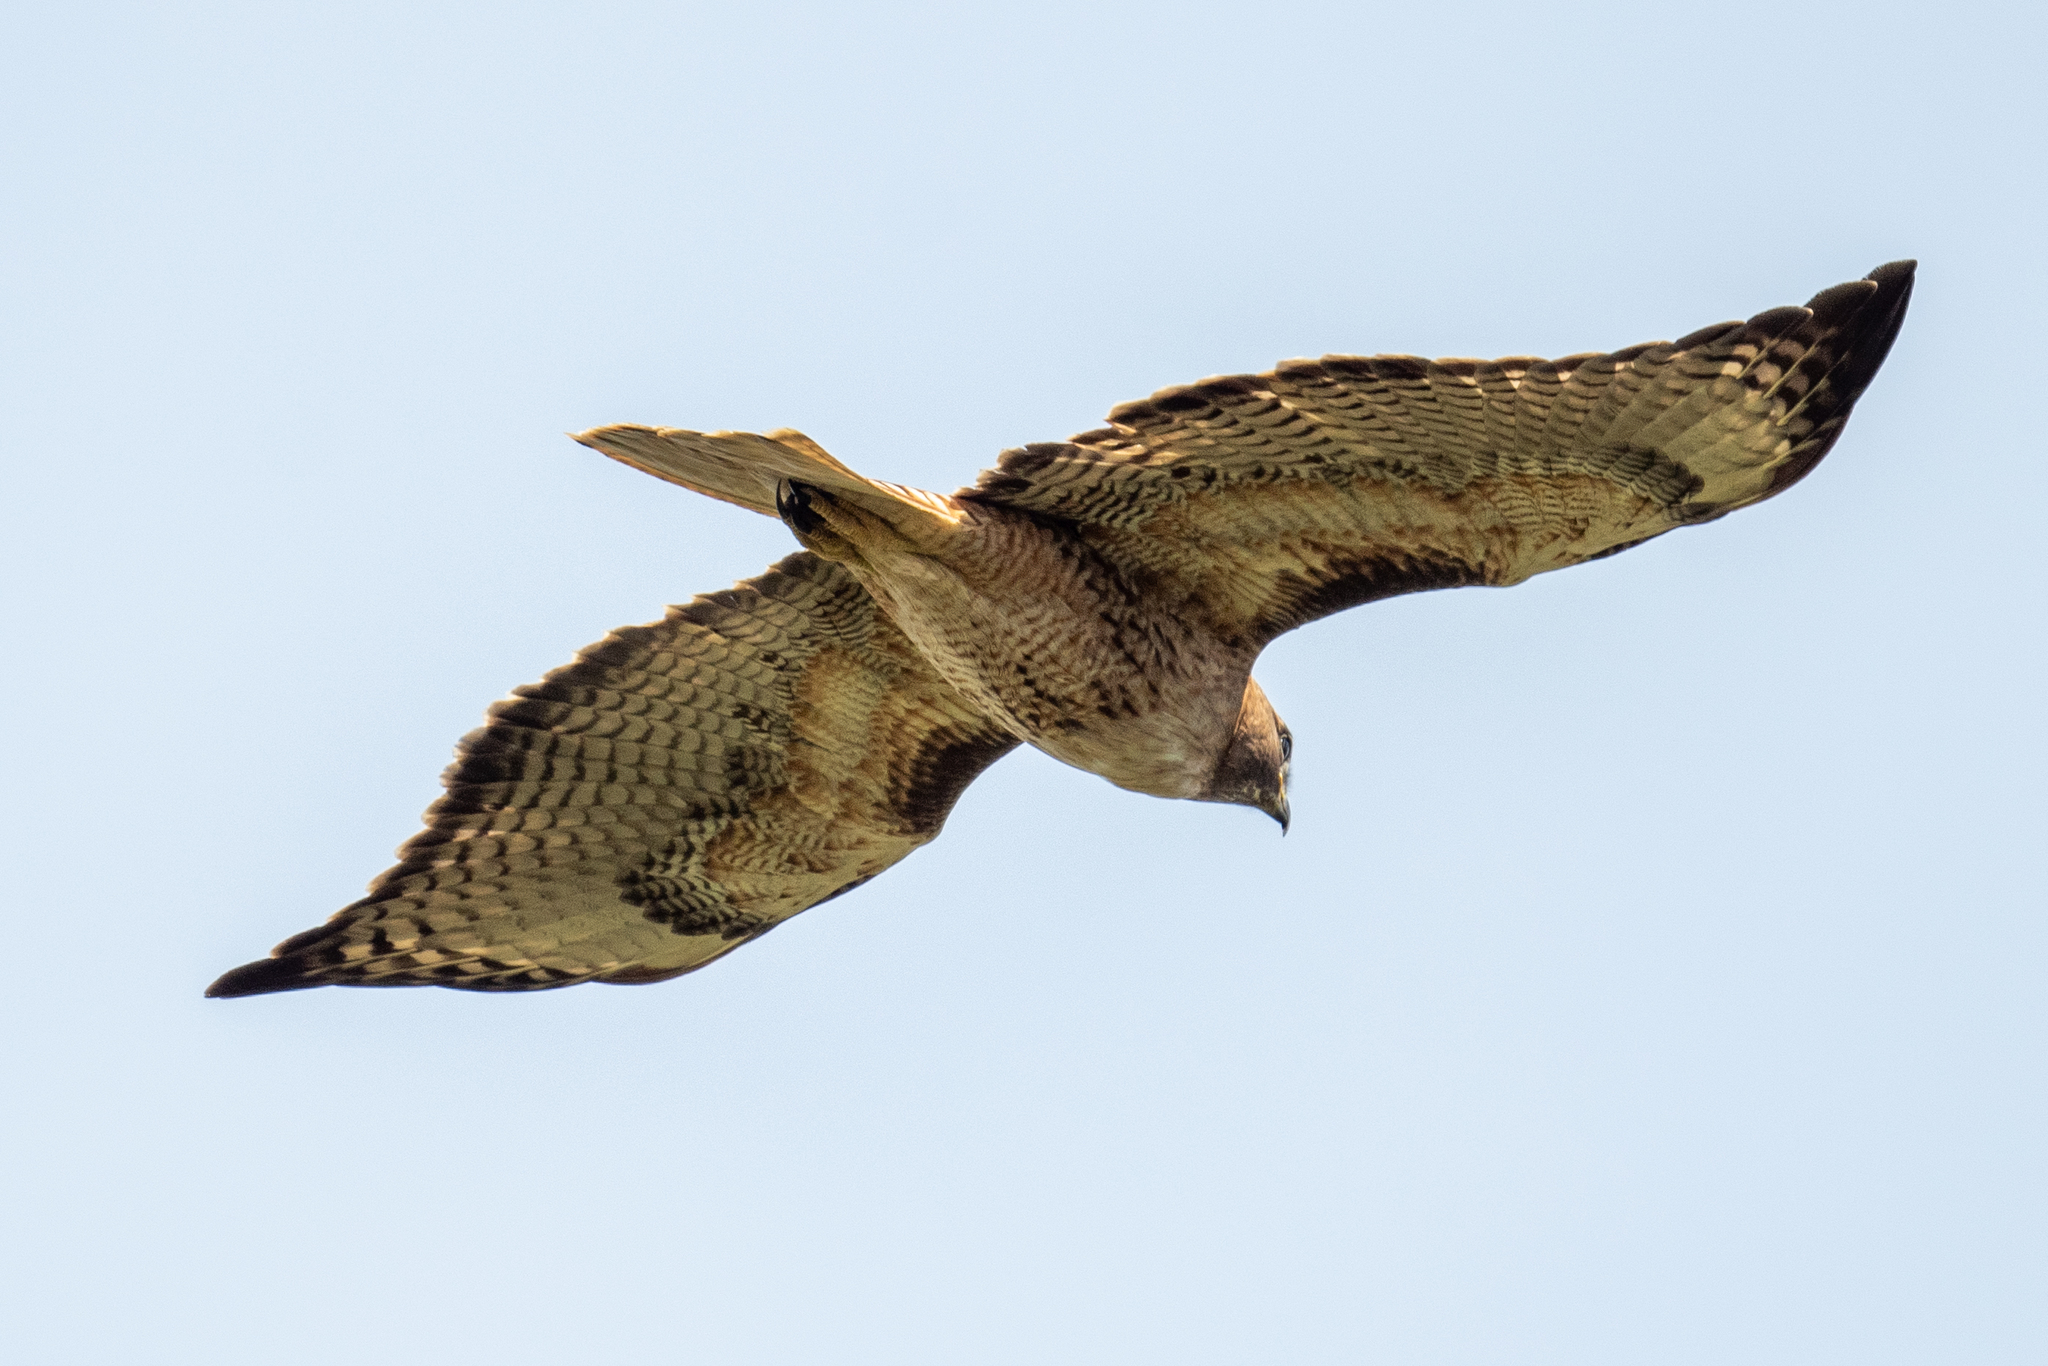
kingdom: Animalia
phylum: Chordata
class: Aves
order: Accipitriformes
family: Accipitridae
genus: Buteo
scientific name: Buteo jamaicensis
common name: Red-tailed hawk
